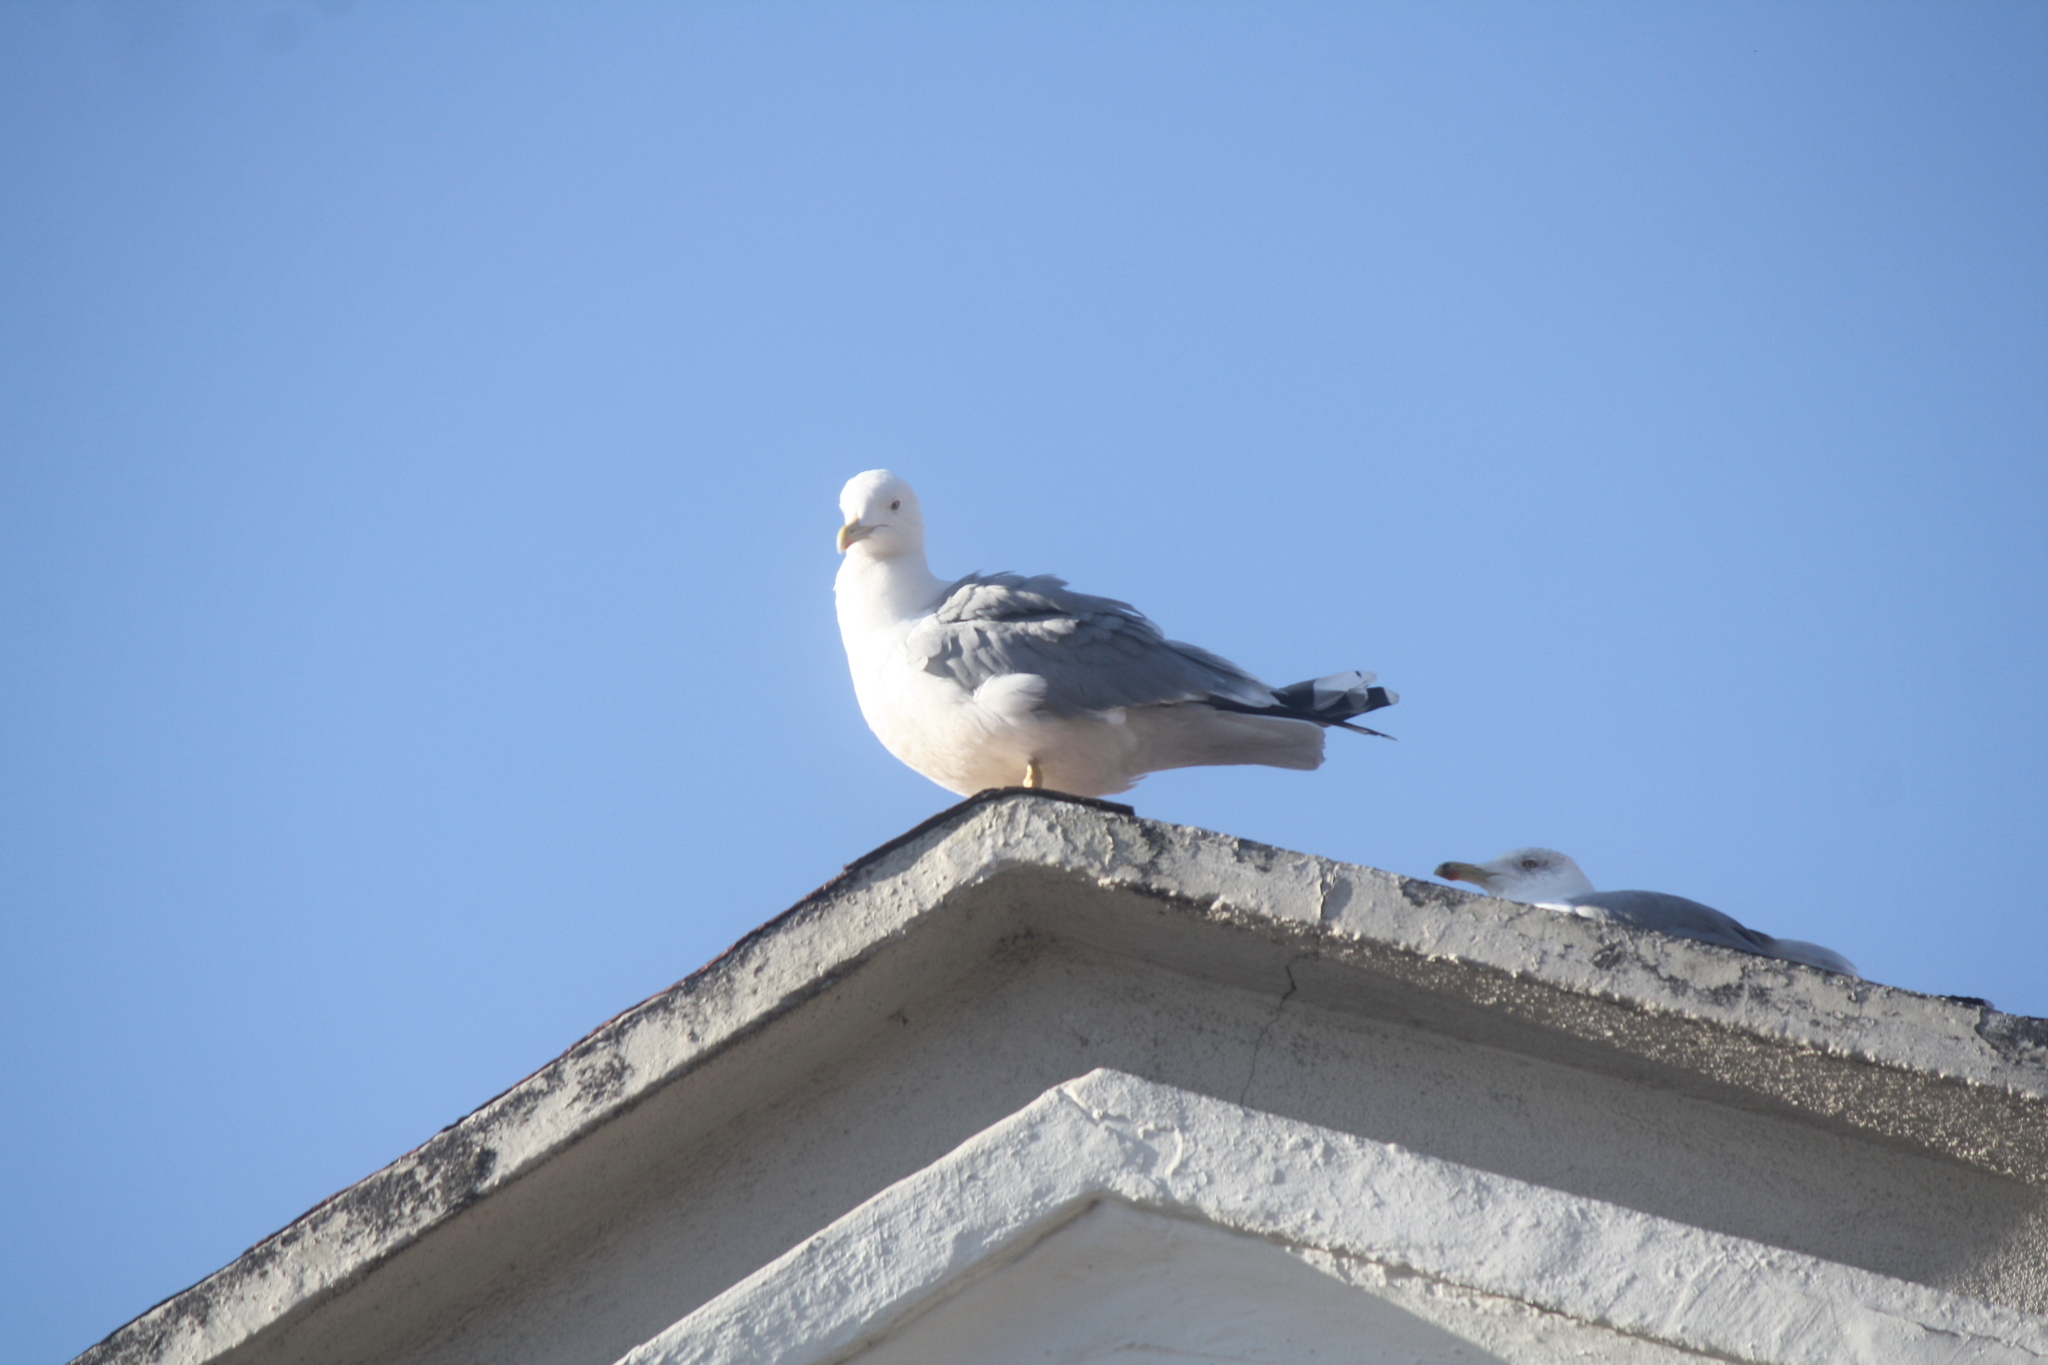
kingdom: Animalia
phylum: Chordata
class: Aves
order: Charadriiformes
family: Laridae
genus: Larus
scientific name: Larus michahellis
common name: Yellow-legged gull
